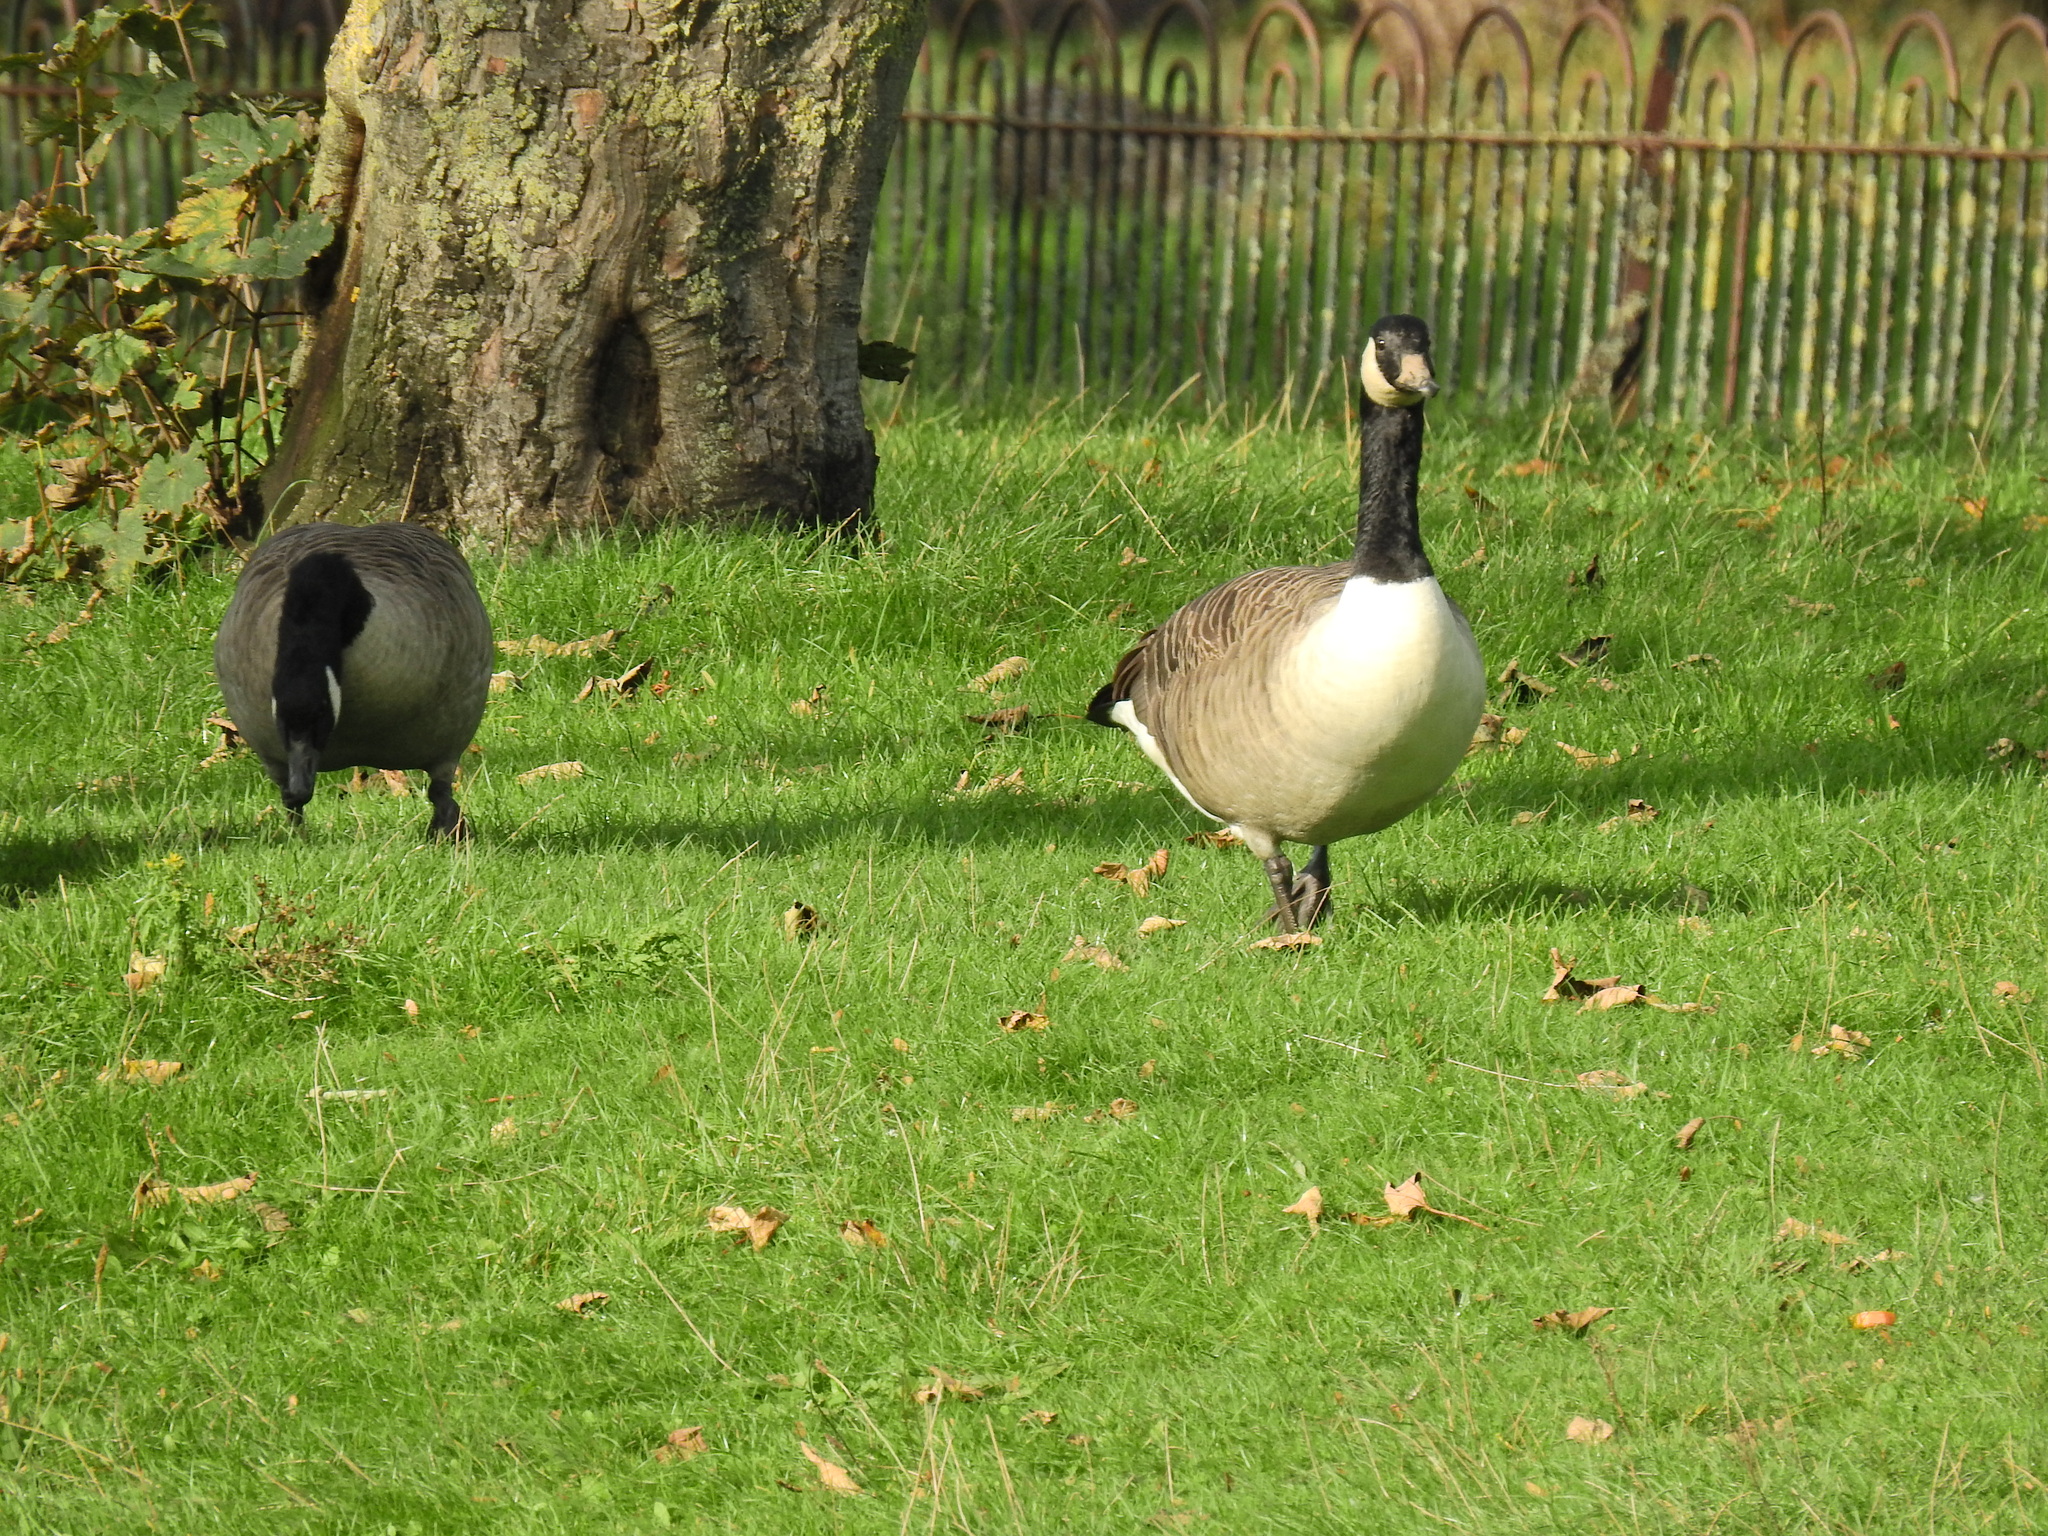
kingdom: Animalia
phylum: Chordata
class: Aves
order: Anseriformes
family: Anatidae
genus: Branta
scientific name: Branta canadensis
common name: Canada goose
